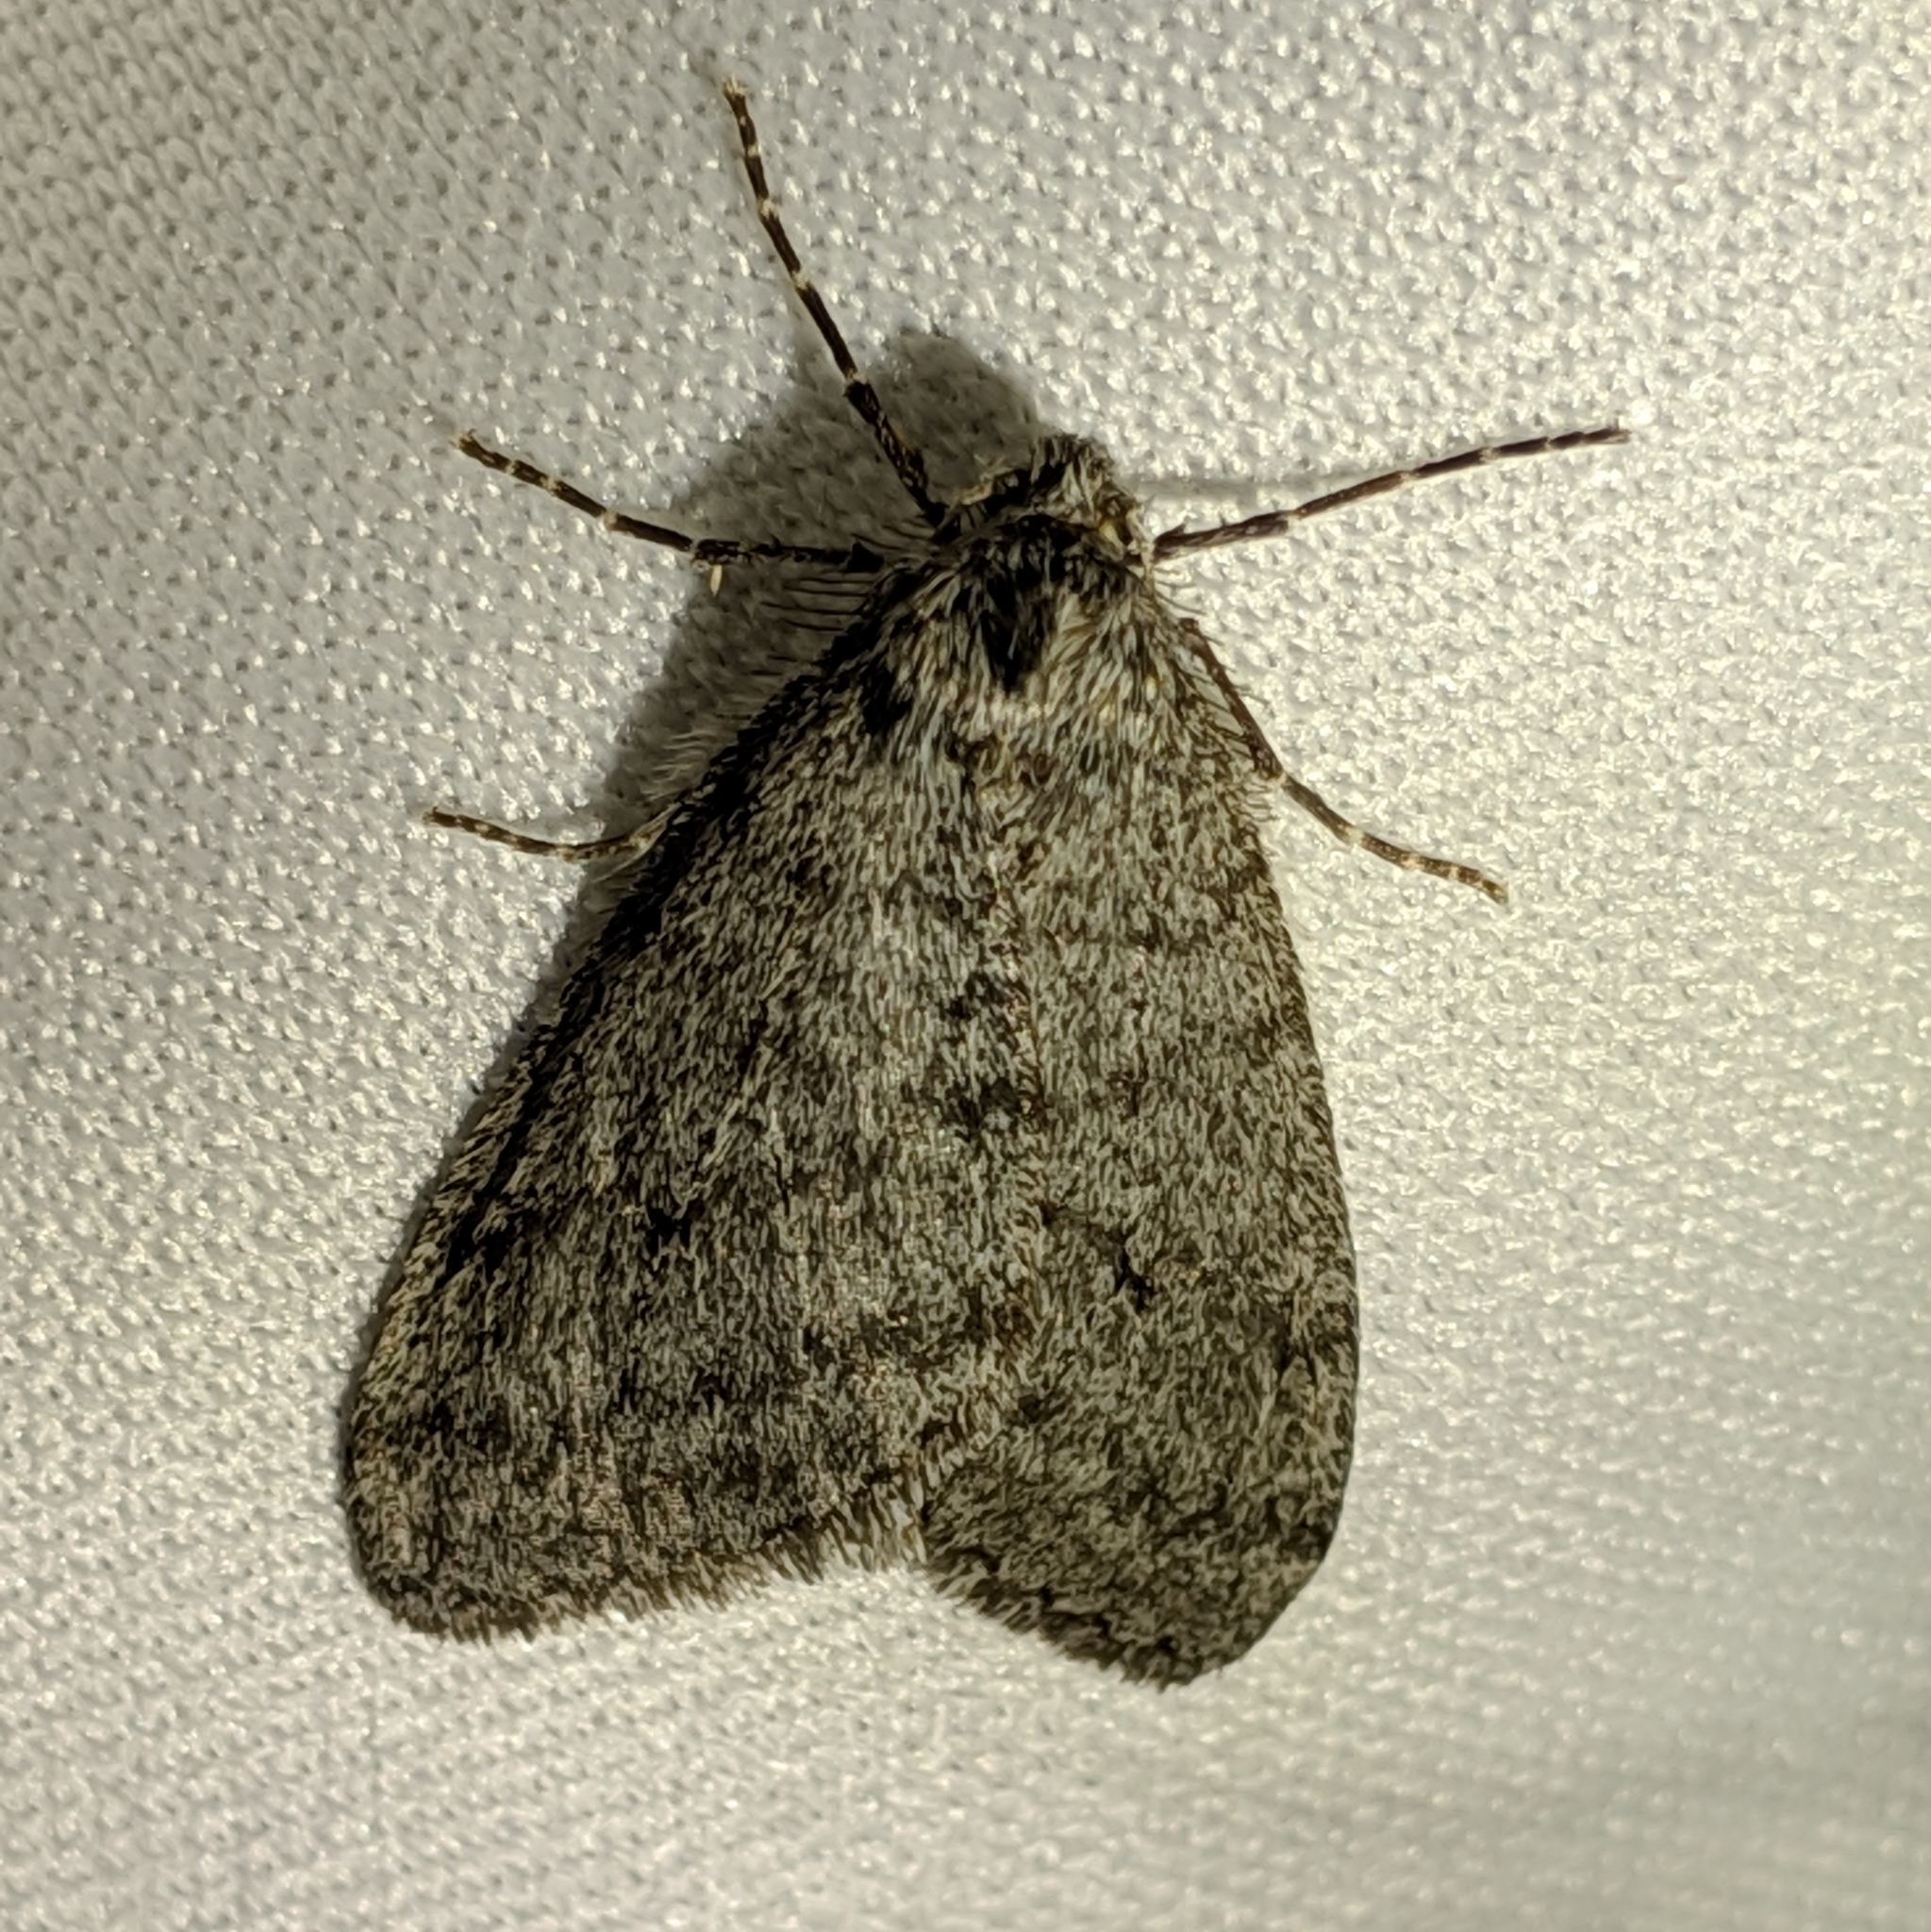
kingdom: Animalia
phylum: Arthropoda
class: Insecta
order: Lepidoptera
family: Geometridae
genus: Phigalia
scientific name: Phigalia plumogeraria
